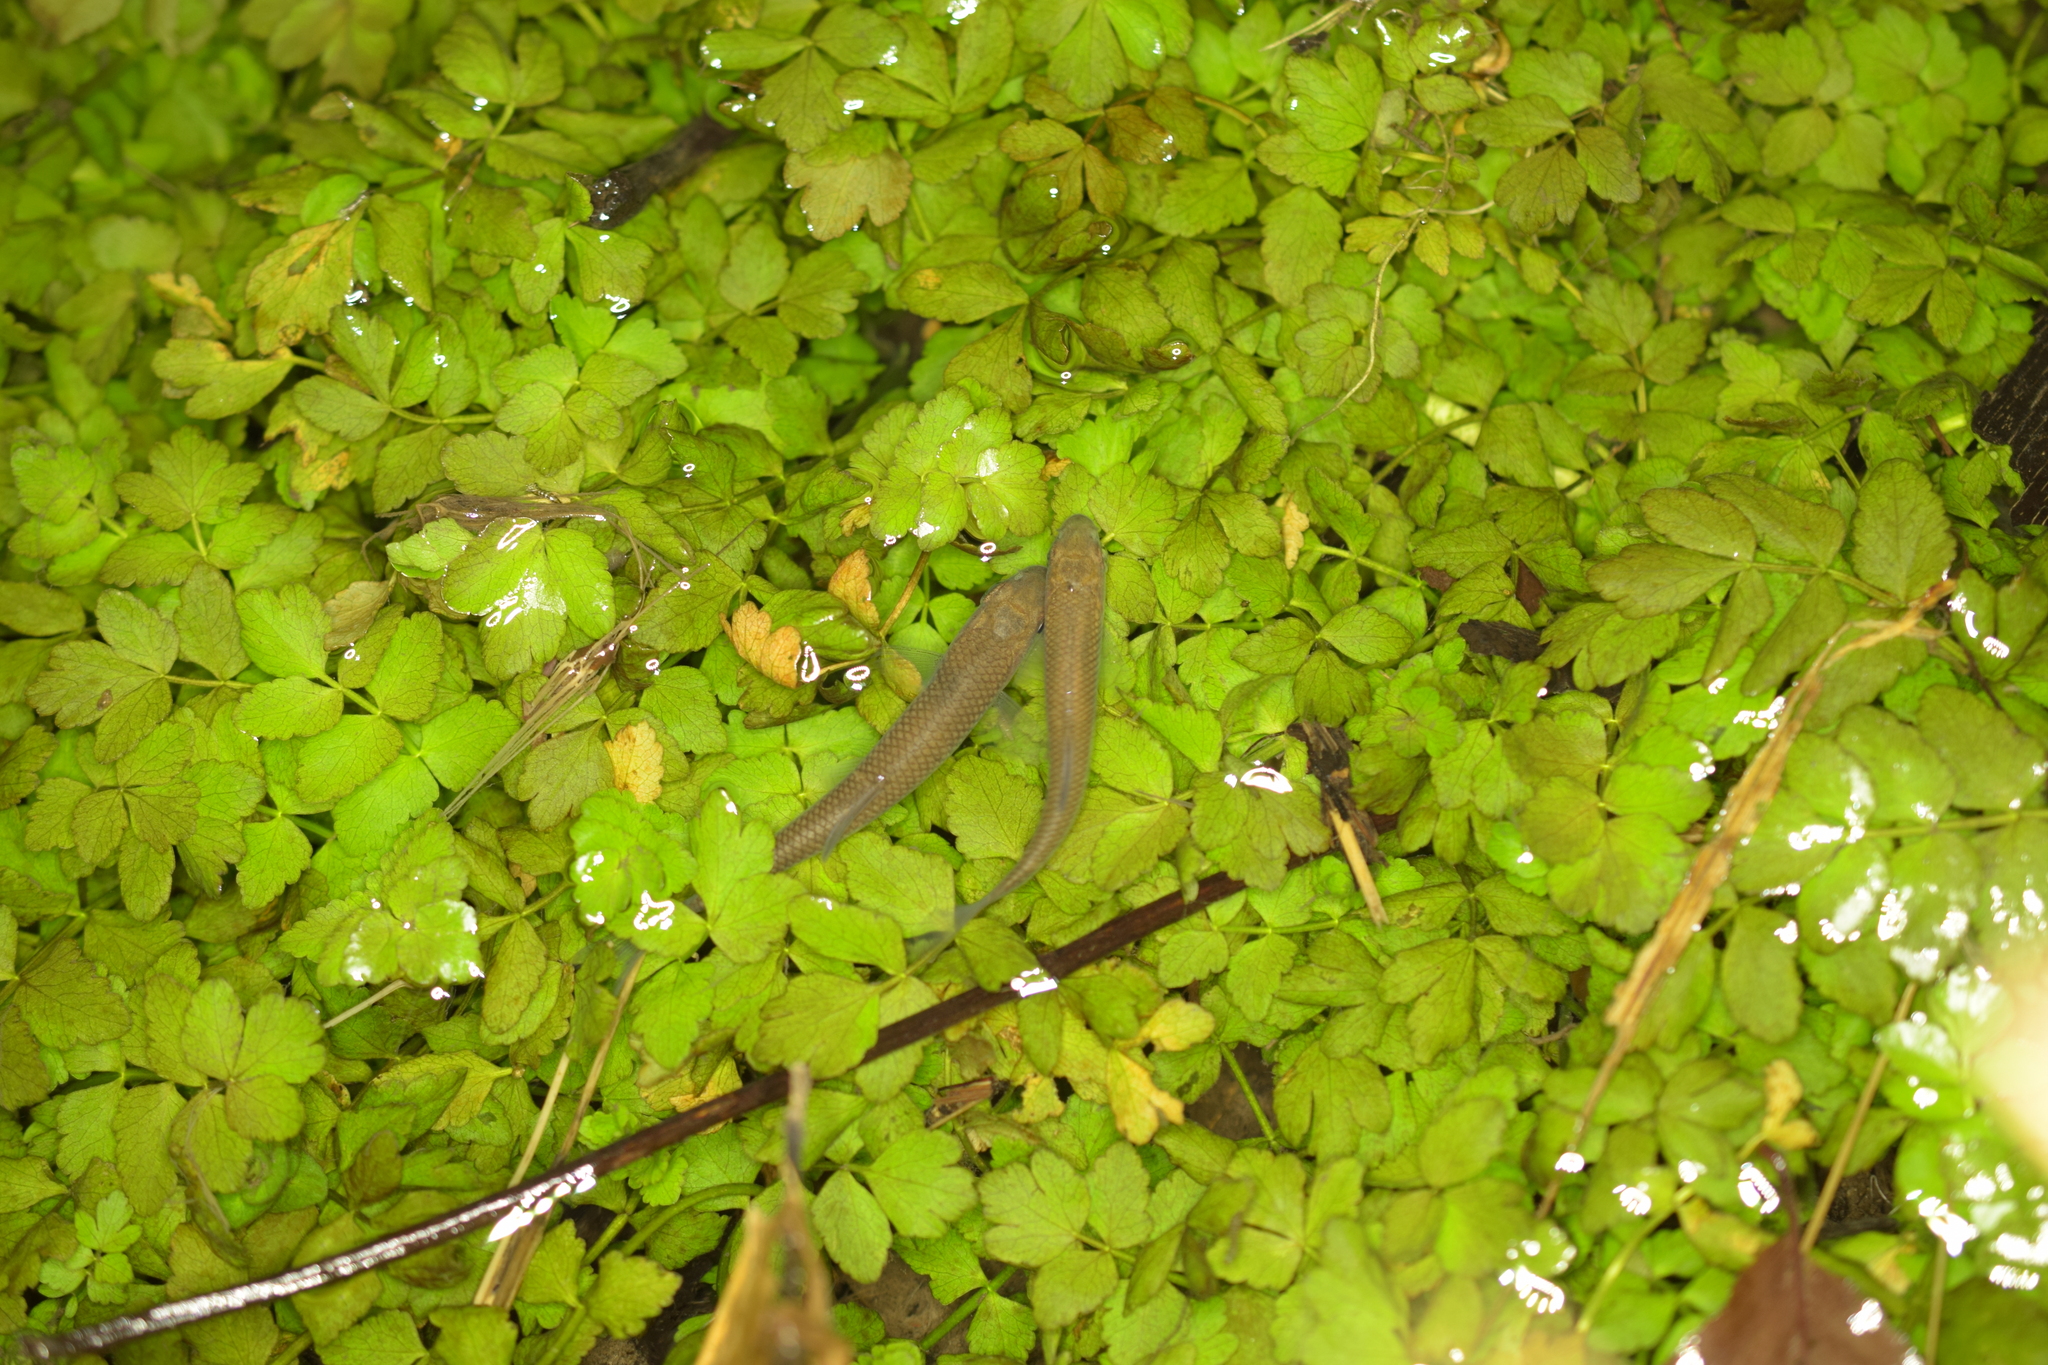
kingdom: Animalia
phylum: Chordata
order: Cypriniformes
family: Cyprinidae
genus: Squalius
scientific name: Squalius cephalus
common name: Chub
